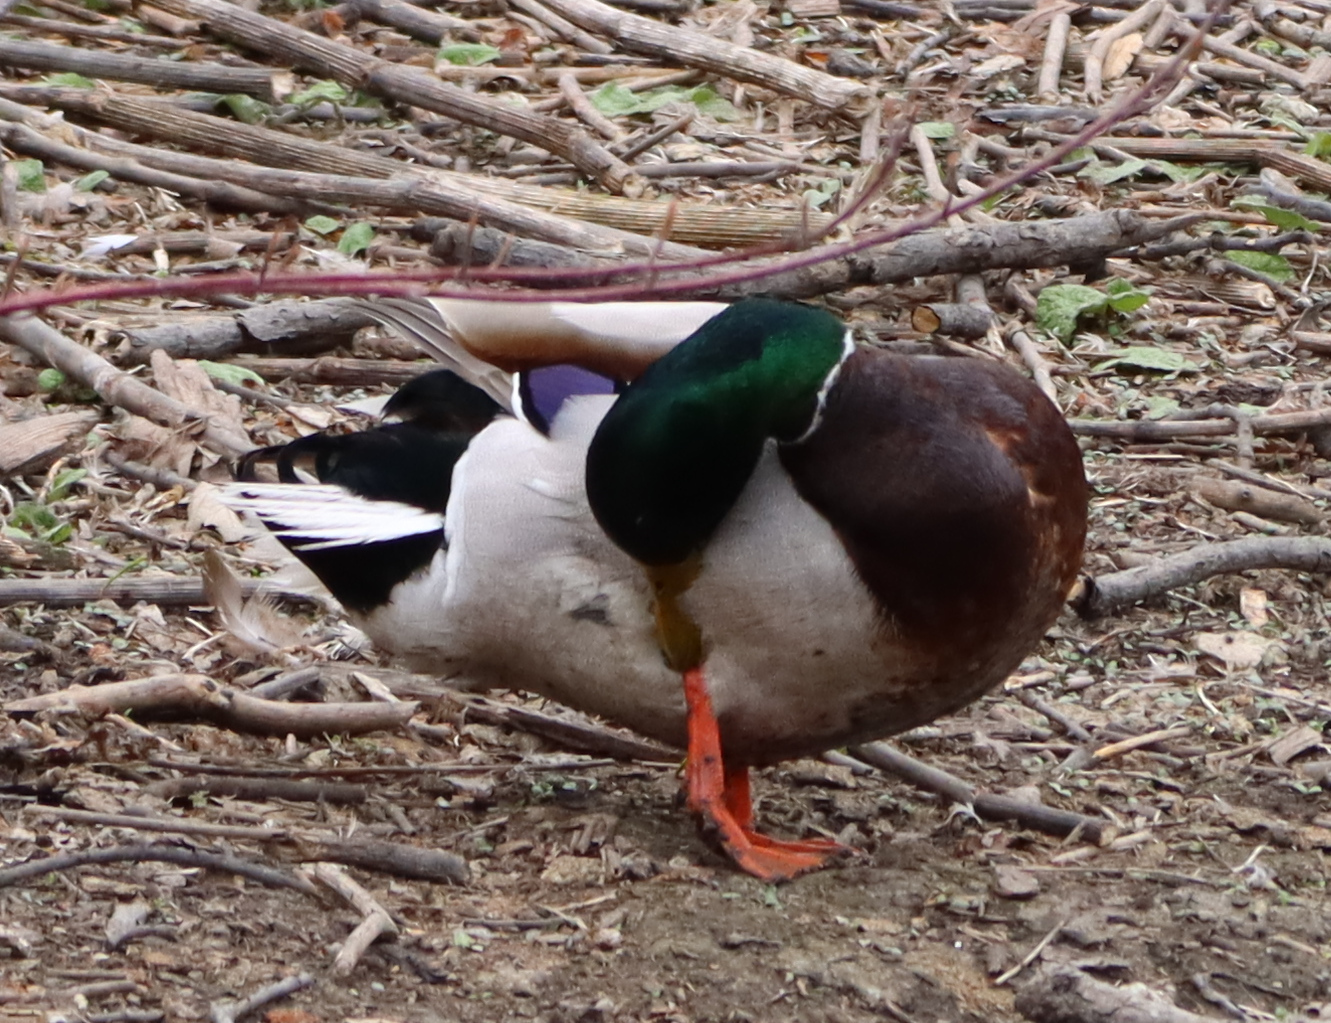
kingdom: Animalia
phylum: Chordata
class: Aves
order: Anseriformes
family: Anatidae
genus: Anas
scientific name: Anas platyrhynchos
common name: Mallard
